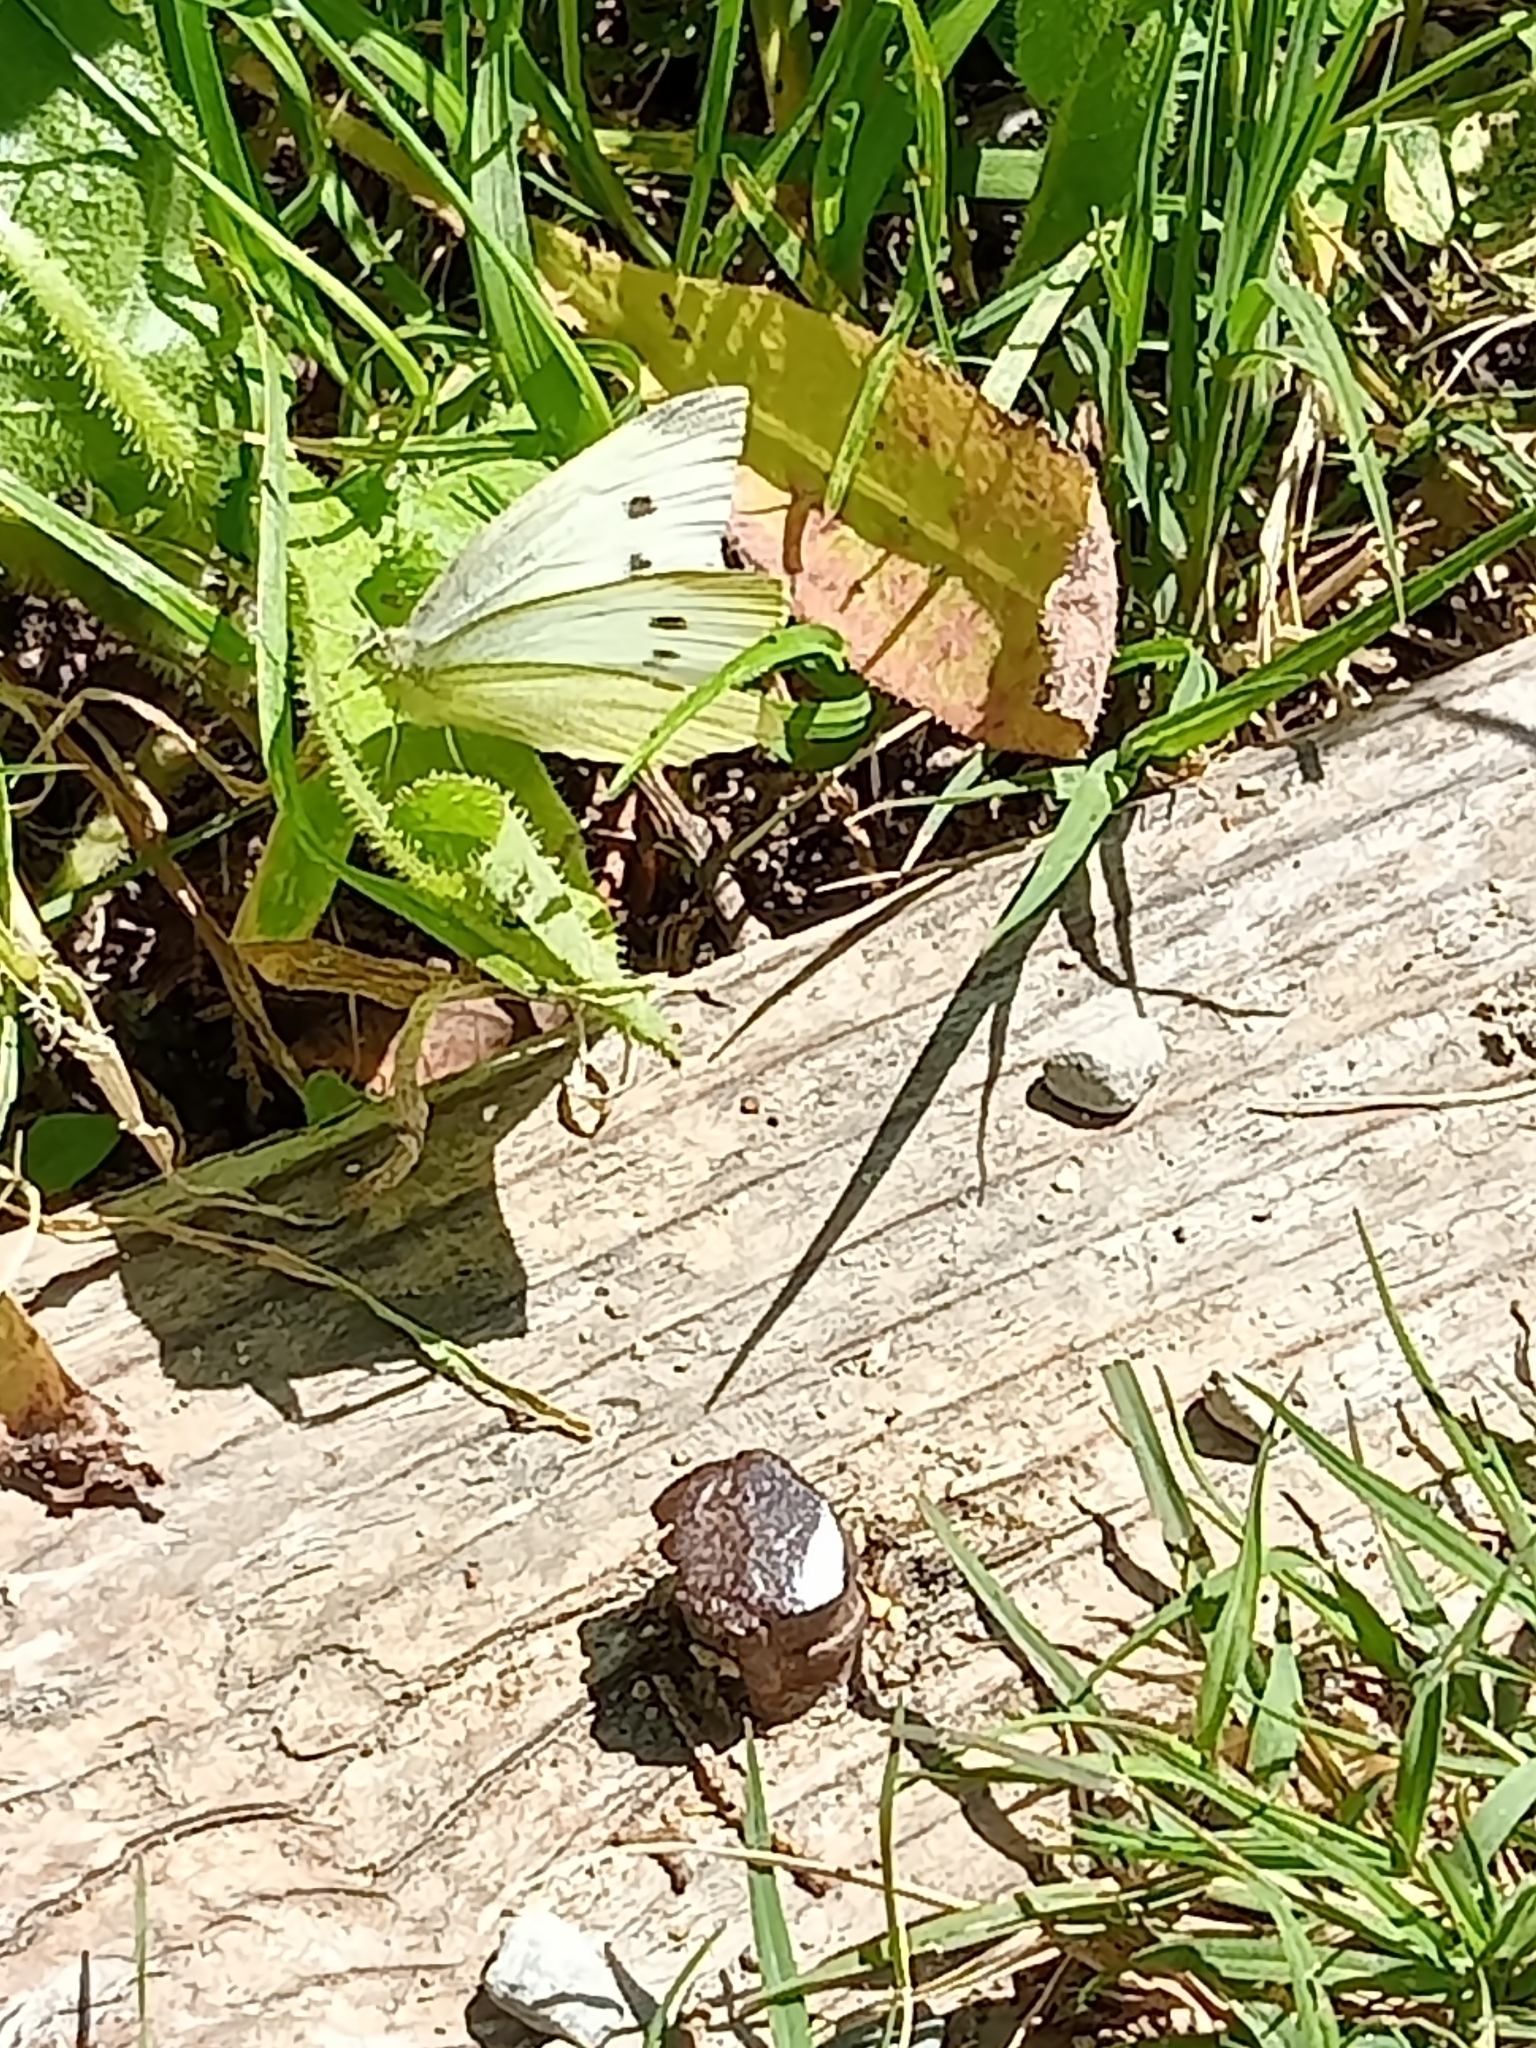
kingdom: Animalia
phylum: Arthropoda
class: Insecta
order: Lepidoptera
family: Pieridae
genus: Pieris
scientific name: Pieris rapae
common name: Small white
